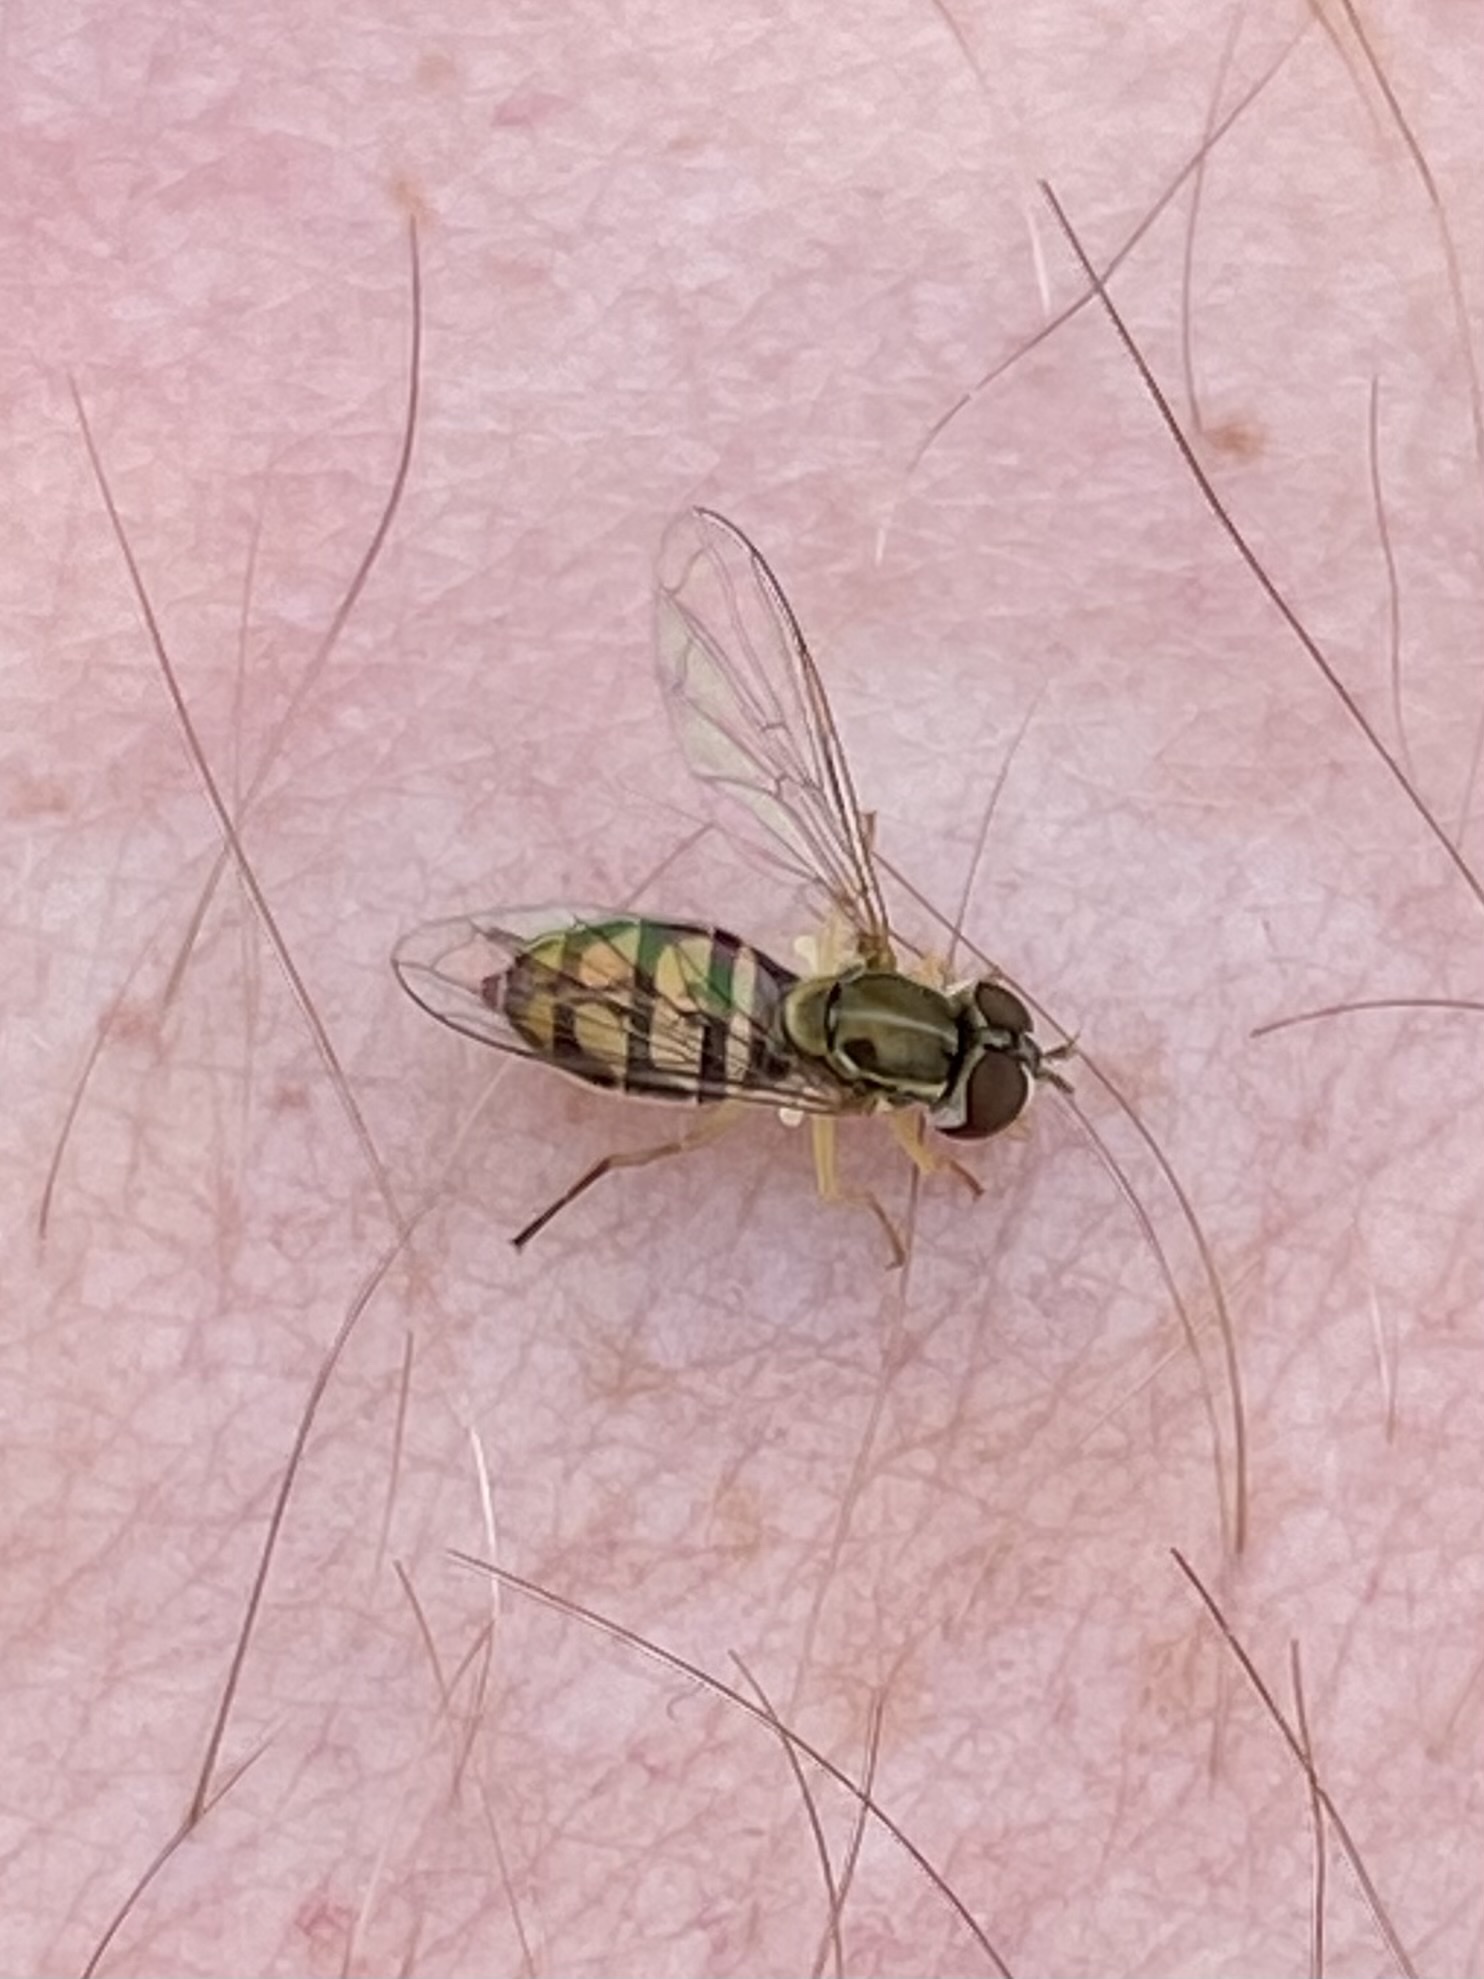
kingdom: Animalia
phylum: Arthropoda
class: Insecta
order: Diptera
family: Syrphidae
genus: Toxomerus
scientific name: Toxomerus marginatus
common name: Syrphid fly
